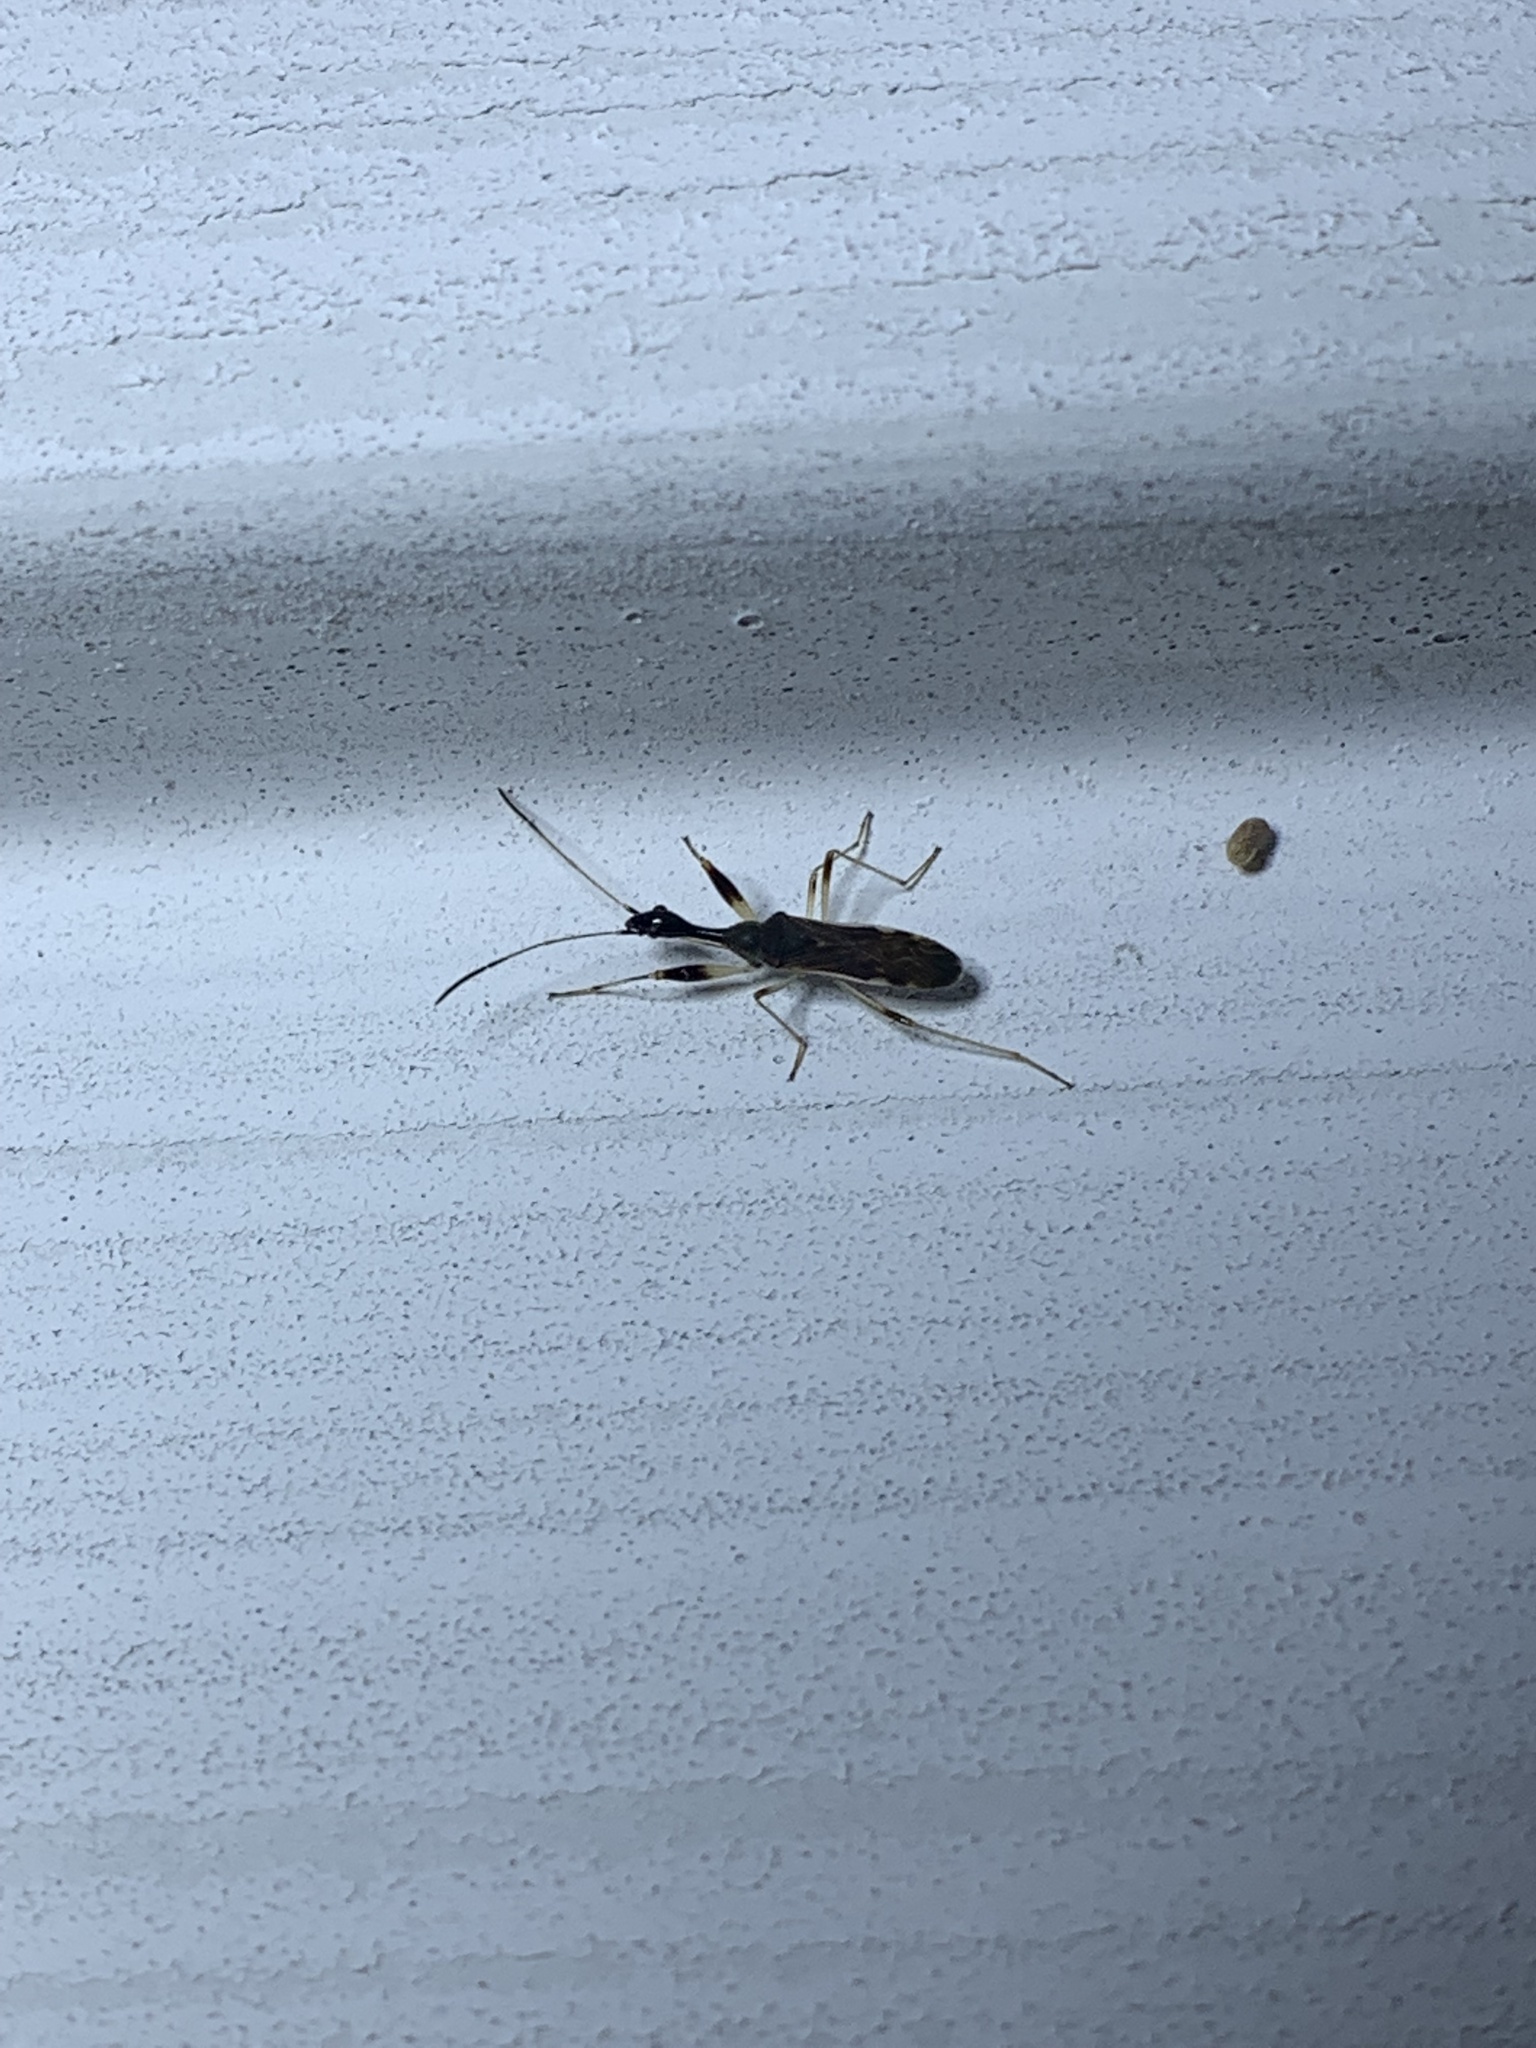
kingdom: Animalia
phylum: Arthropoda
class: Insecta
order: Hemiptera
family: Rhyparochromidae
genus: Myodocha
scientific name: Myodocha serripes
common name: Long-necked seed bug
